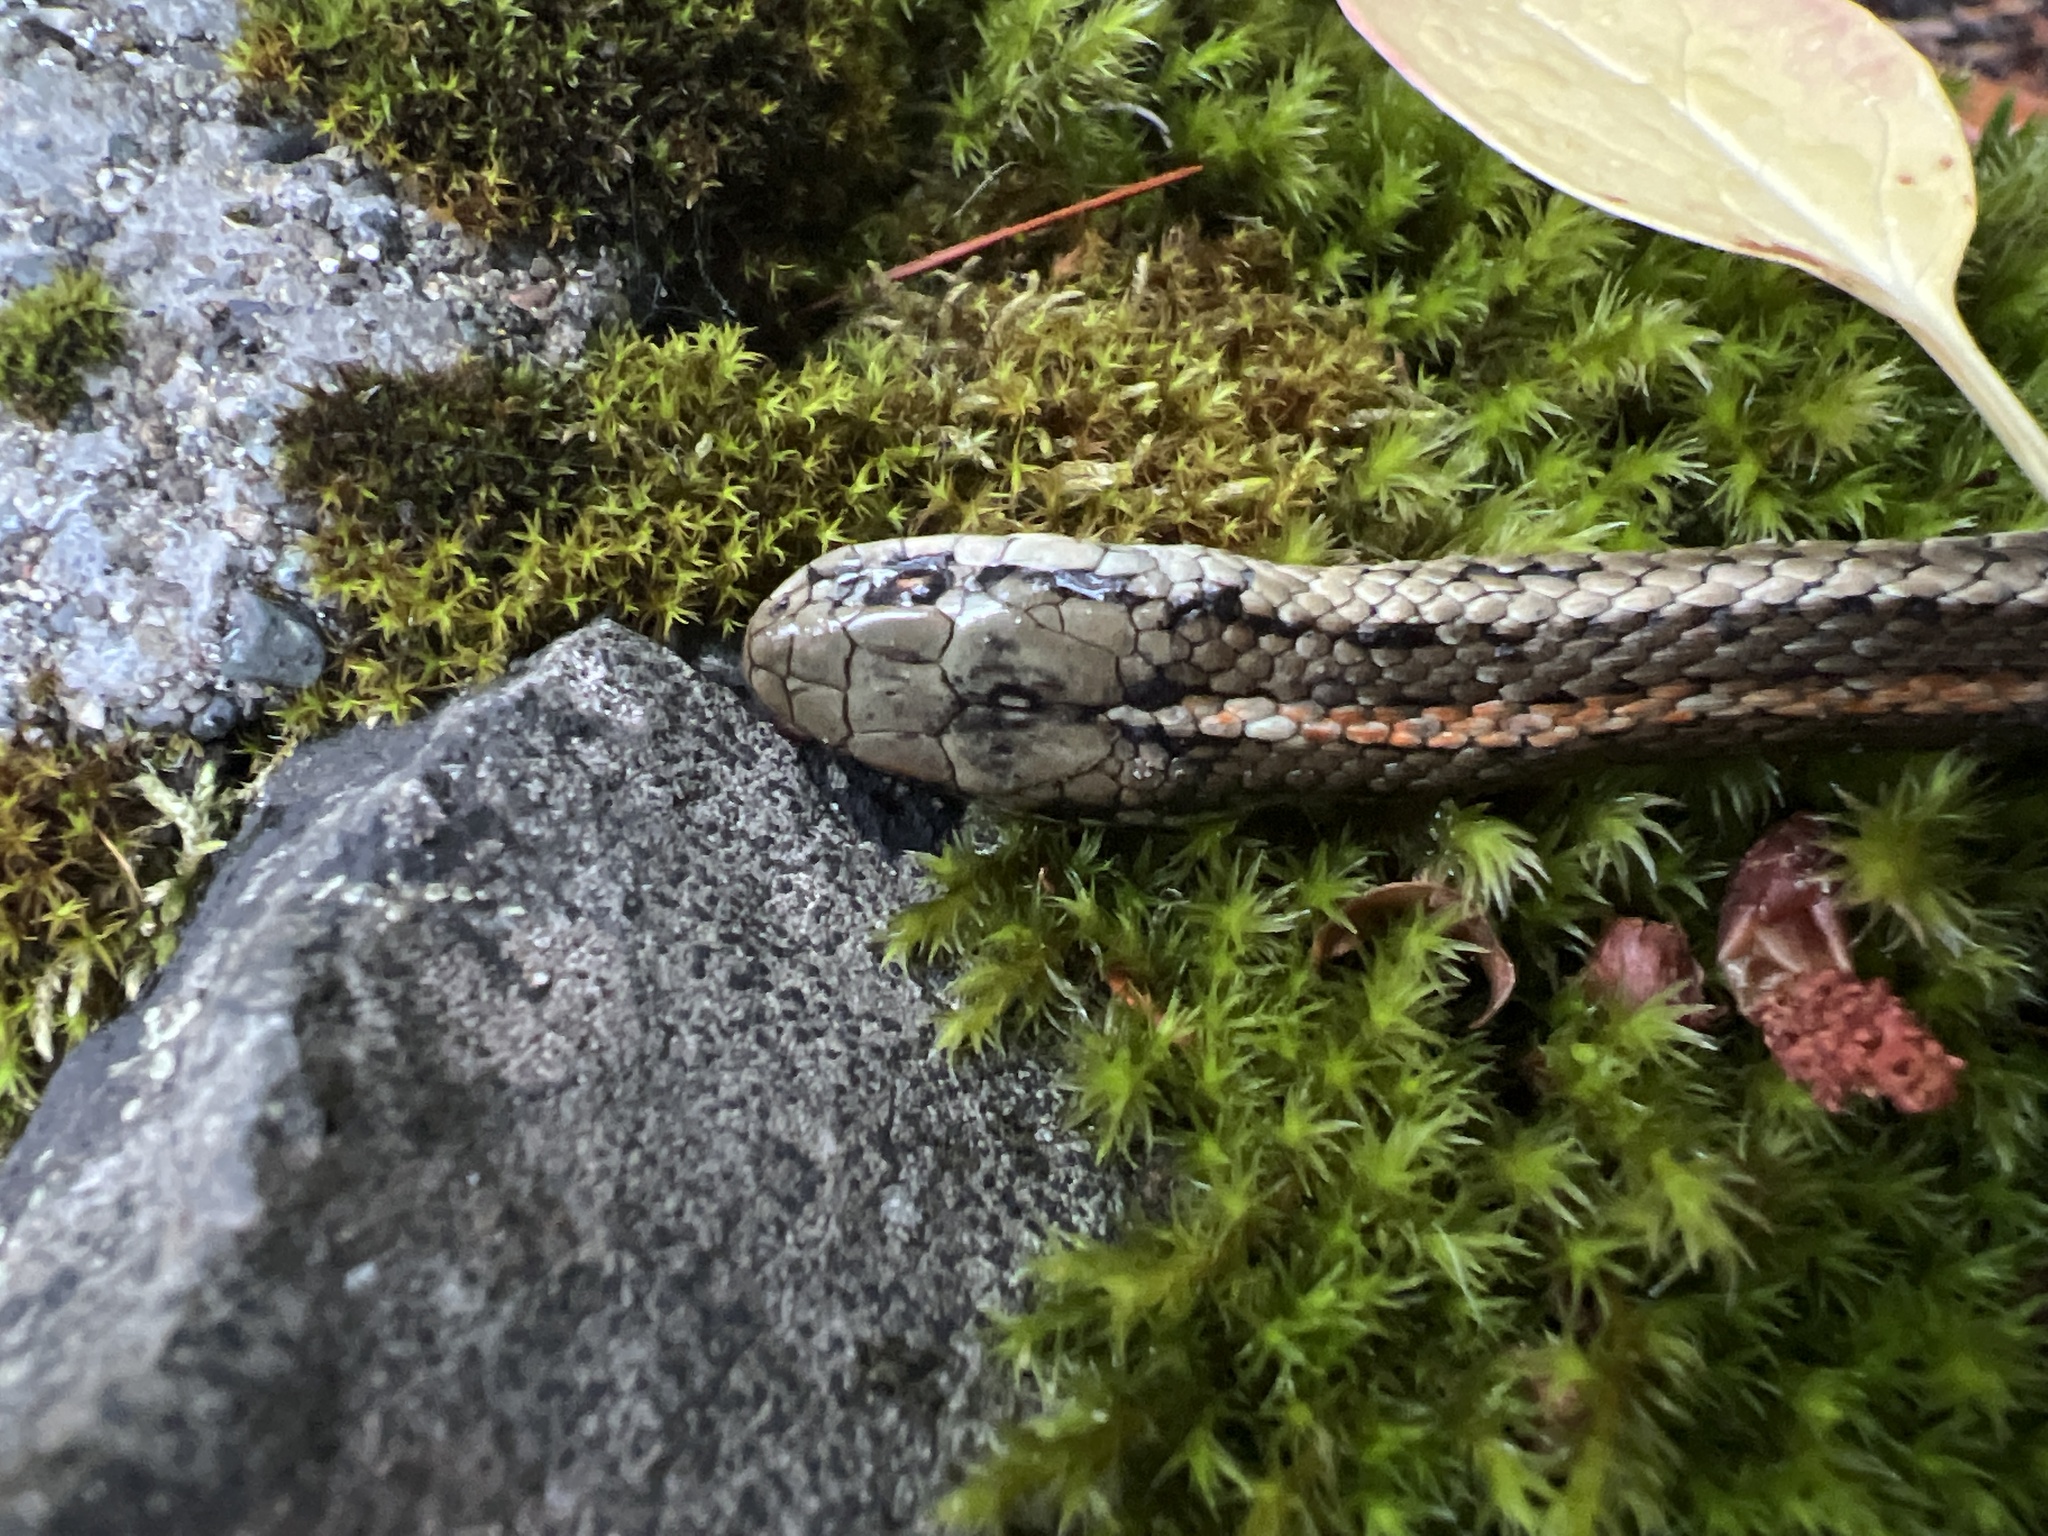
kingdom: Animalia
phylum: Chordata
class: Squamata
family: Colubridae
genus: Thamnophis
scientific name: Thamnophis ordinoides
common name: Northwestern garter snake
